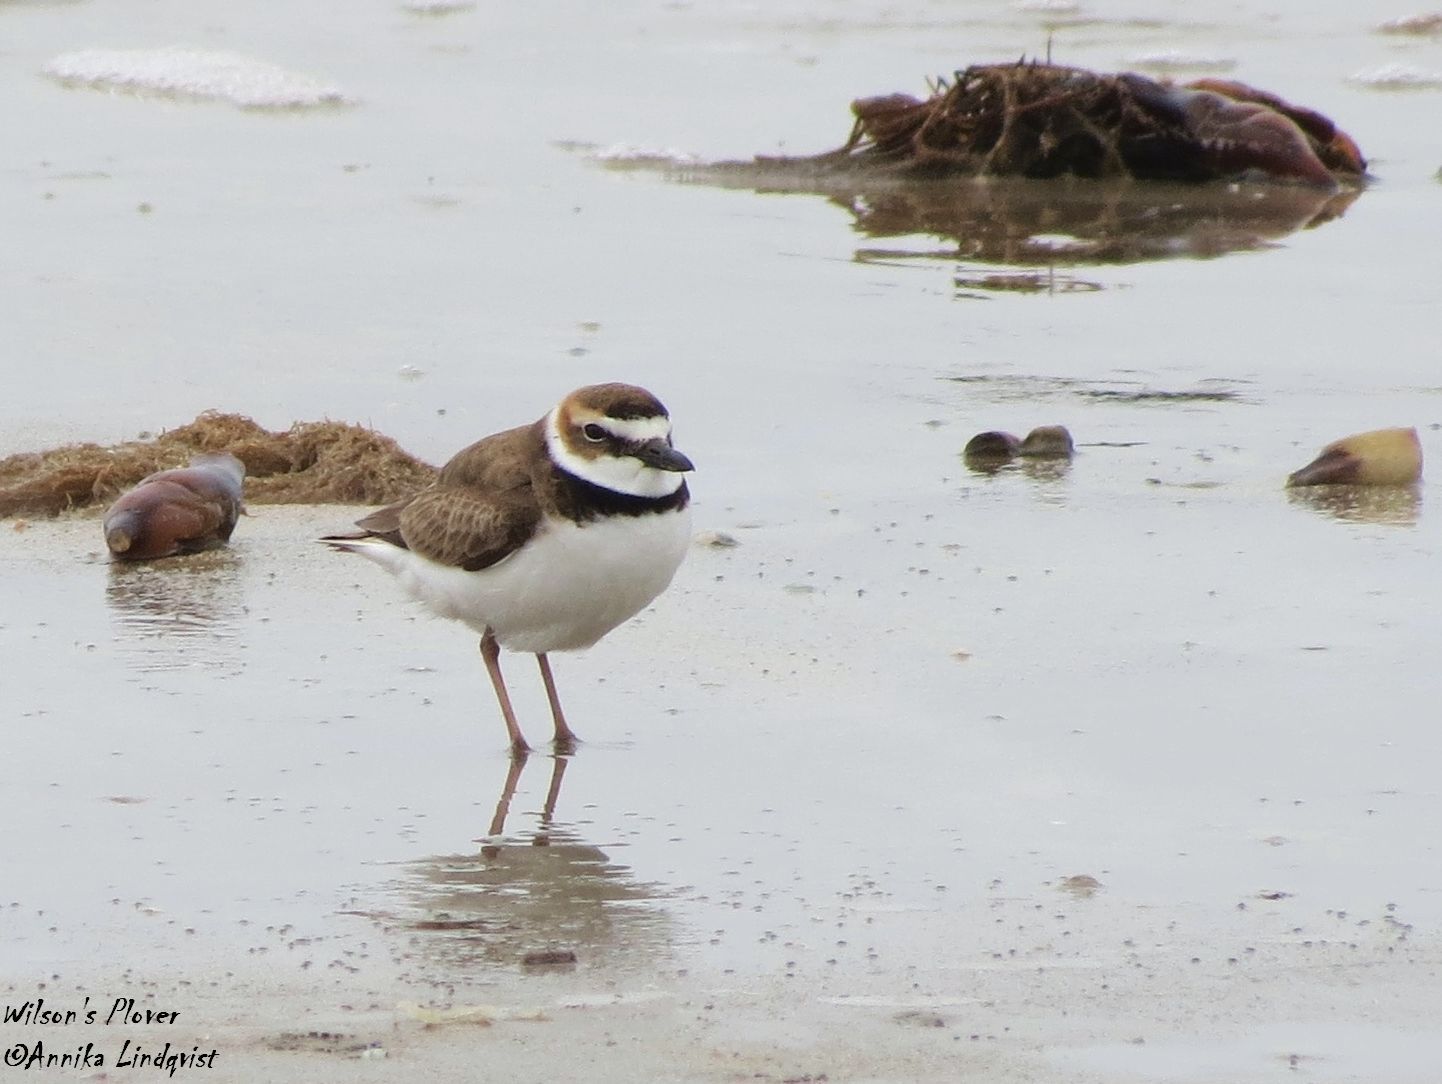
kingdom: Animalia
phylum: Chordata
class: Aves
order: Charadriiformes
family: Charadriidae
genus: Anarhynchus
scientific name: Anarhynchus
